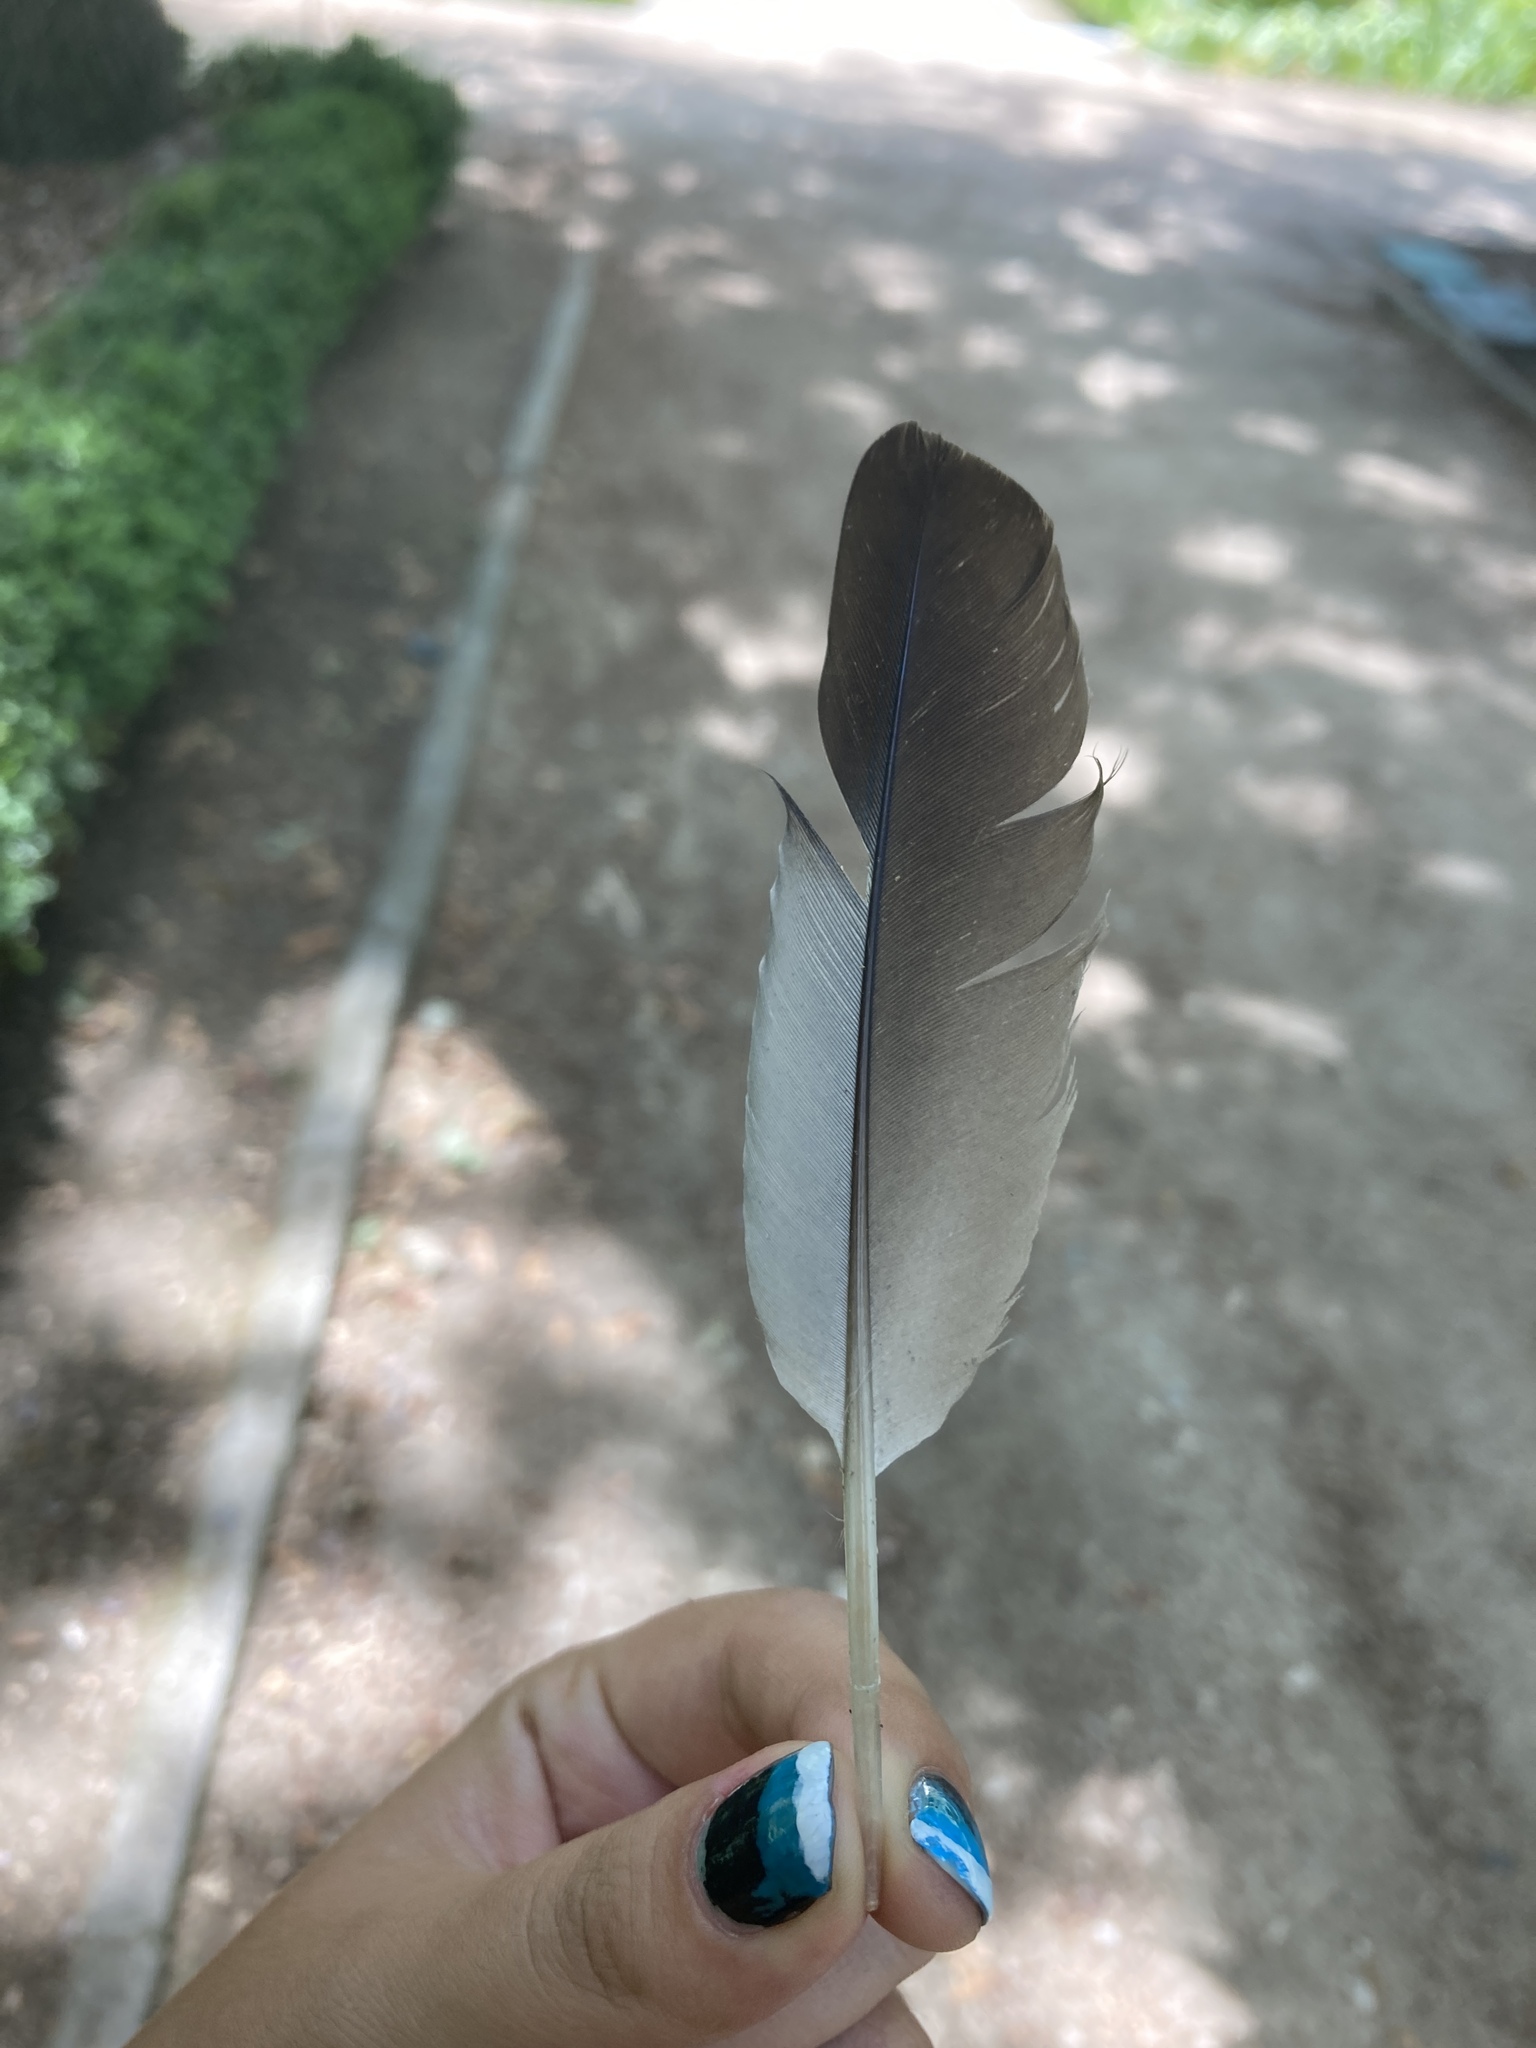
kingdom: Animalia
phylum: Chordata
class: Aves
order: Columbiformes
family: Columbidae
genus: Columba
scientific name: Columba oenas
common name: Stock dove
